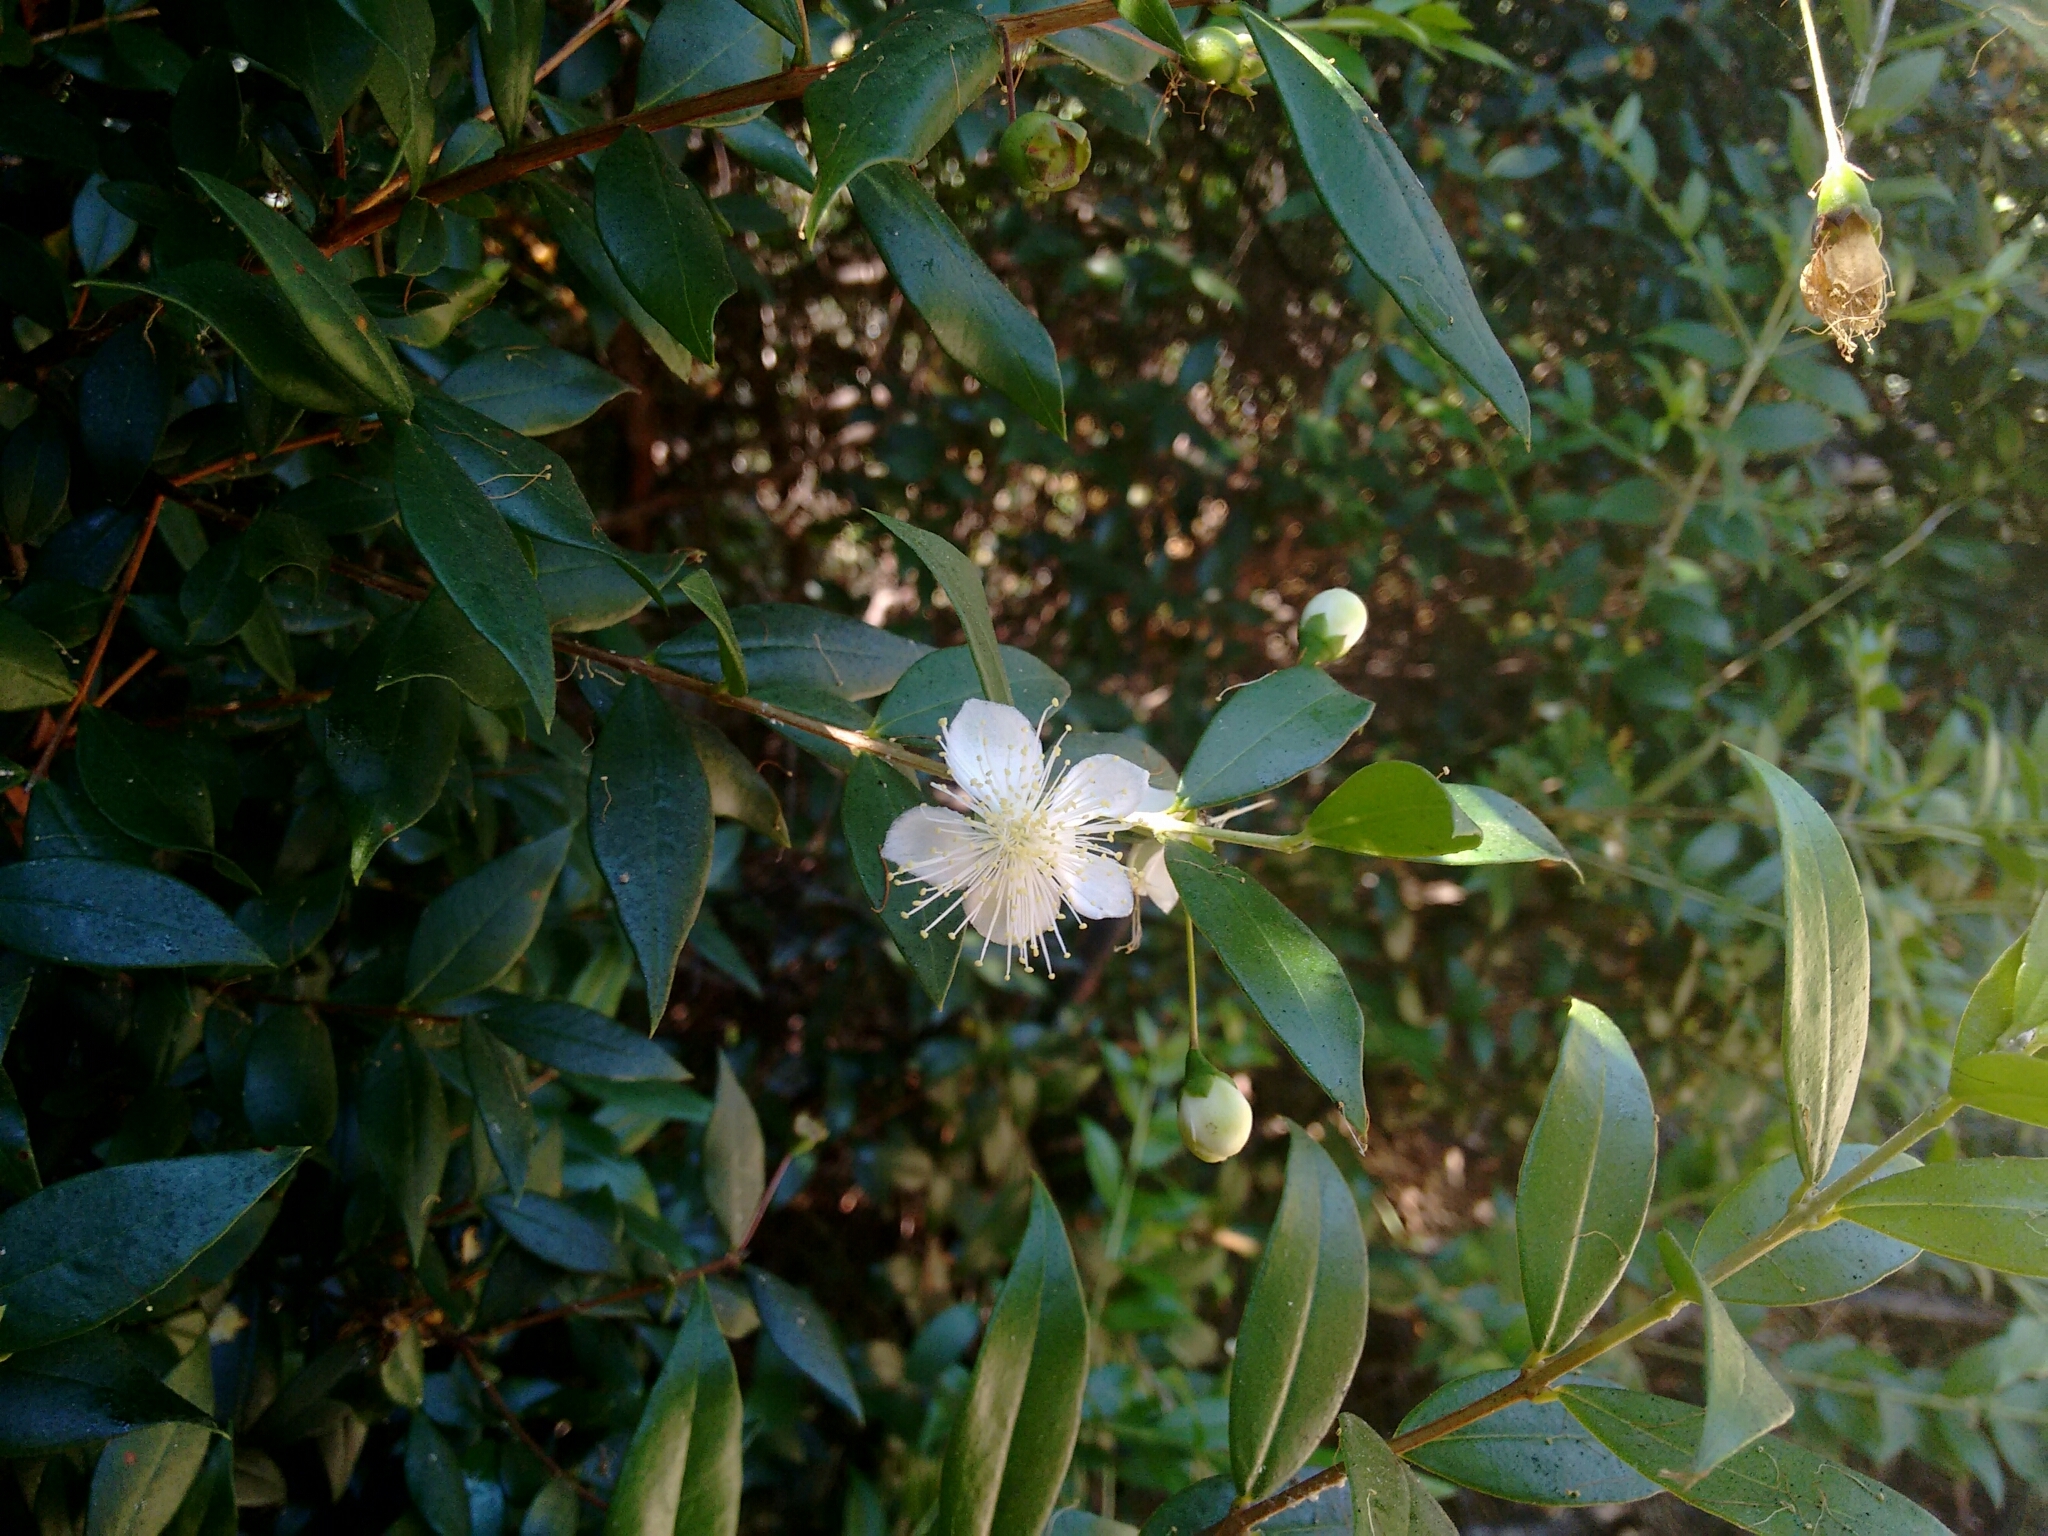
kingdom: Plantae
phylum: Tracheophyta
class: Magnoliopsida
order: Myrtales
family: Myrtaceae
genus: Myrtus
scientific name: Myrtus communis
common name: Myrtle
